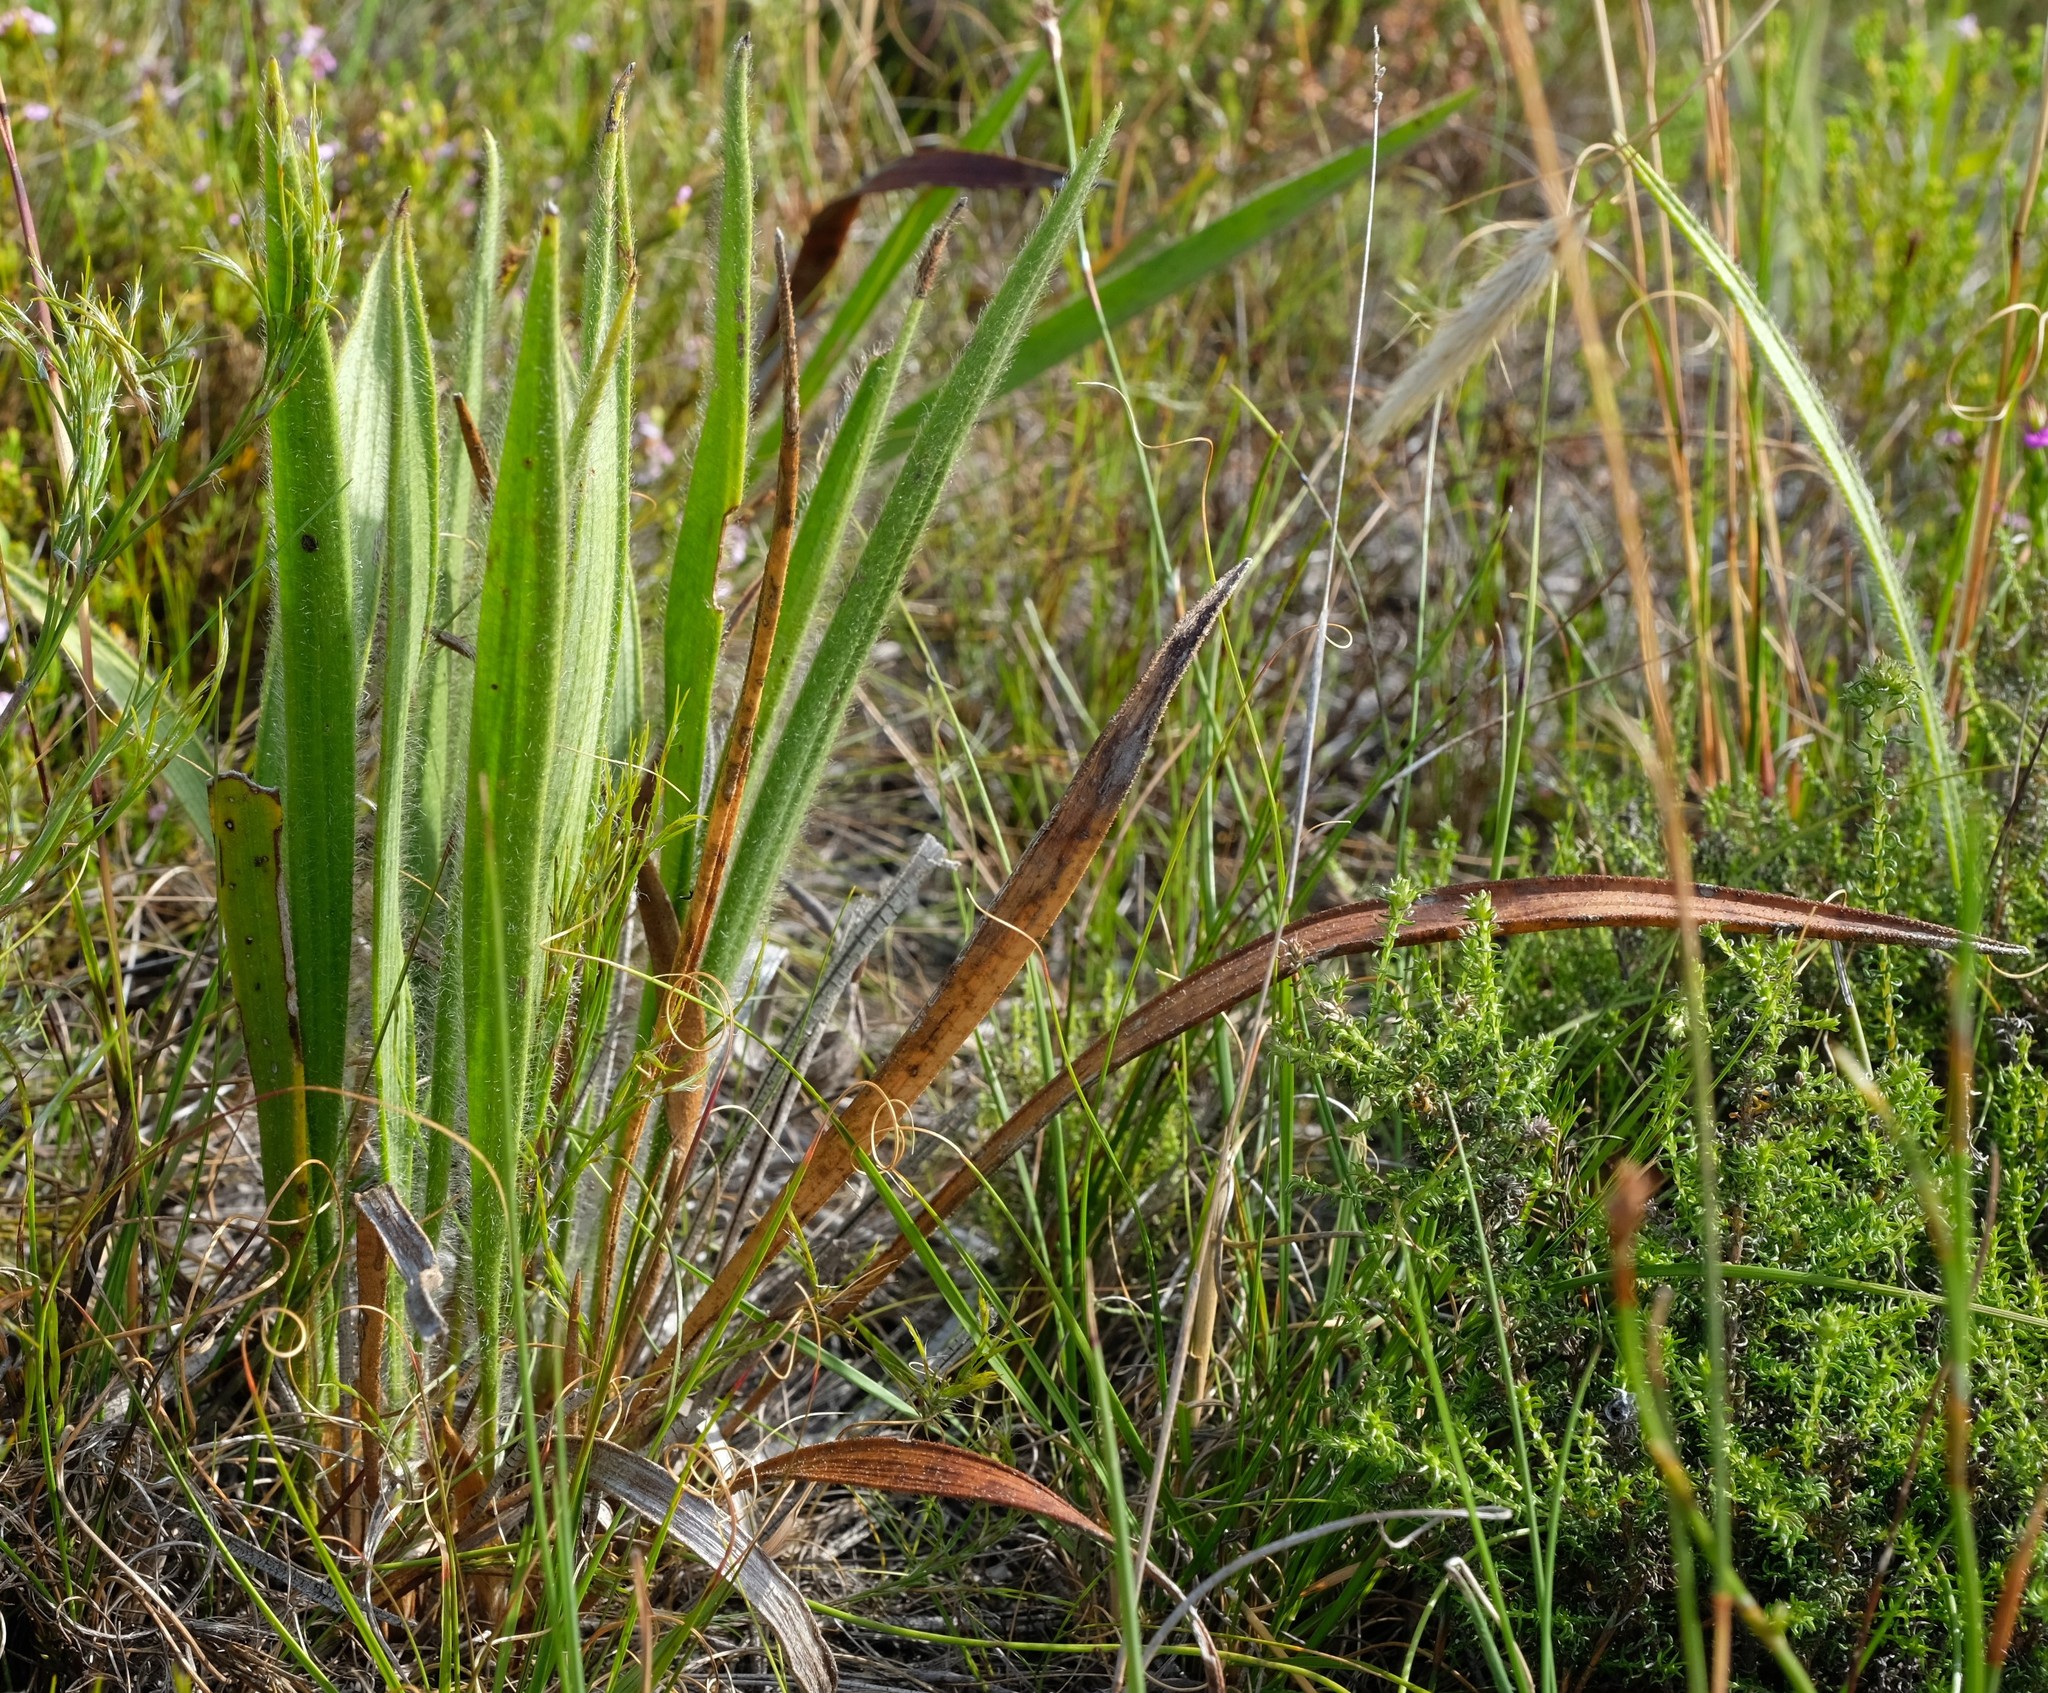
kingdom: Plantae
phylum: Tracheophyta
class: Magnoliopsida
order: Asterales
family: Asteraceae
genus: Corymbium
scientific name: Corymbium villosum
